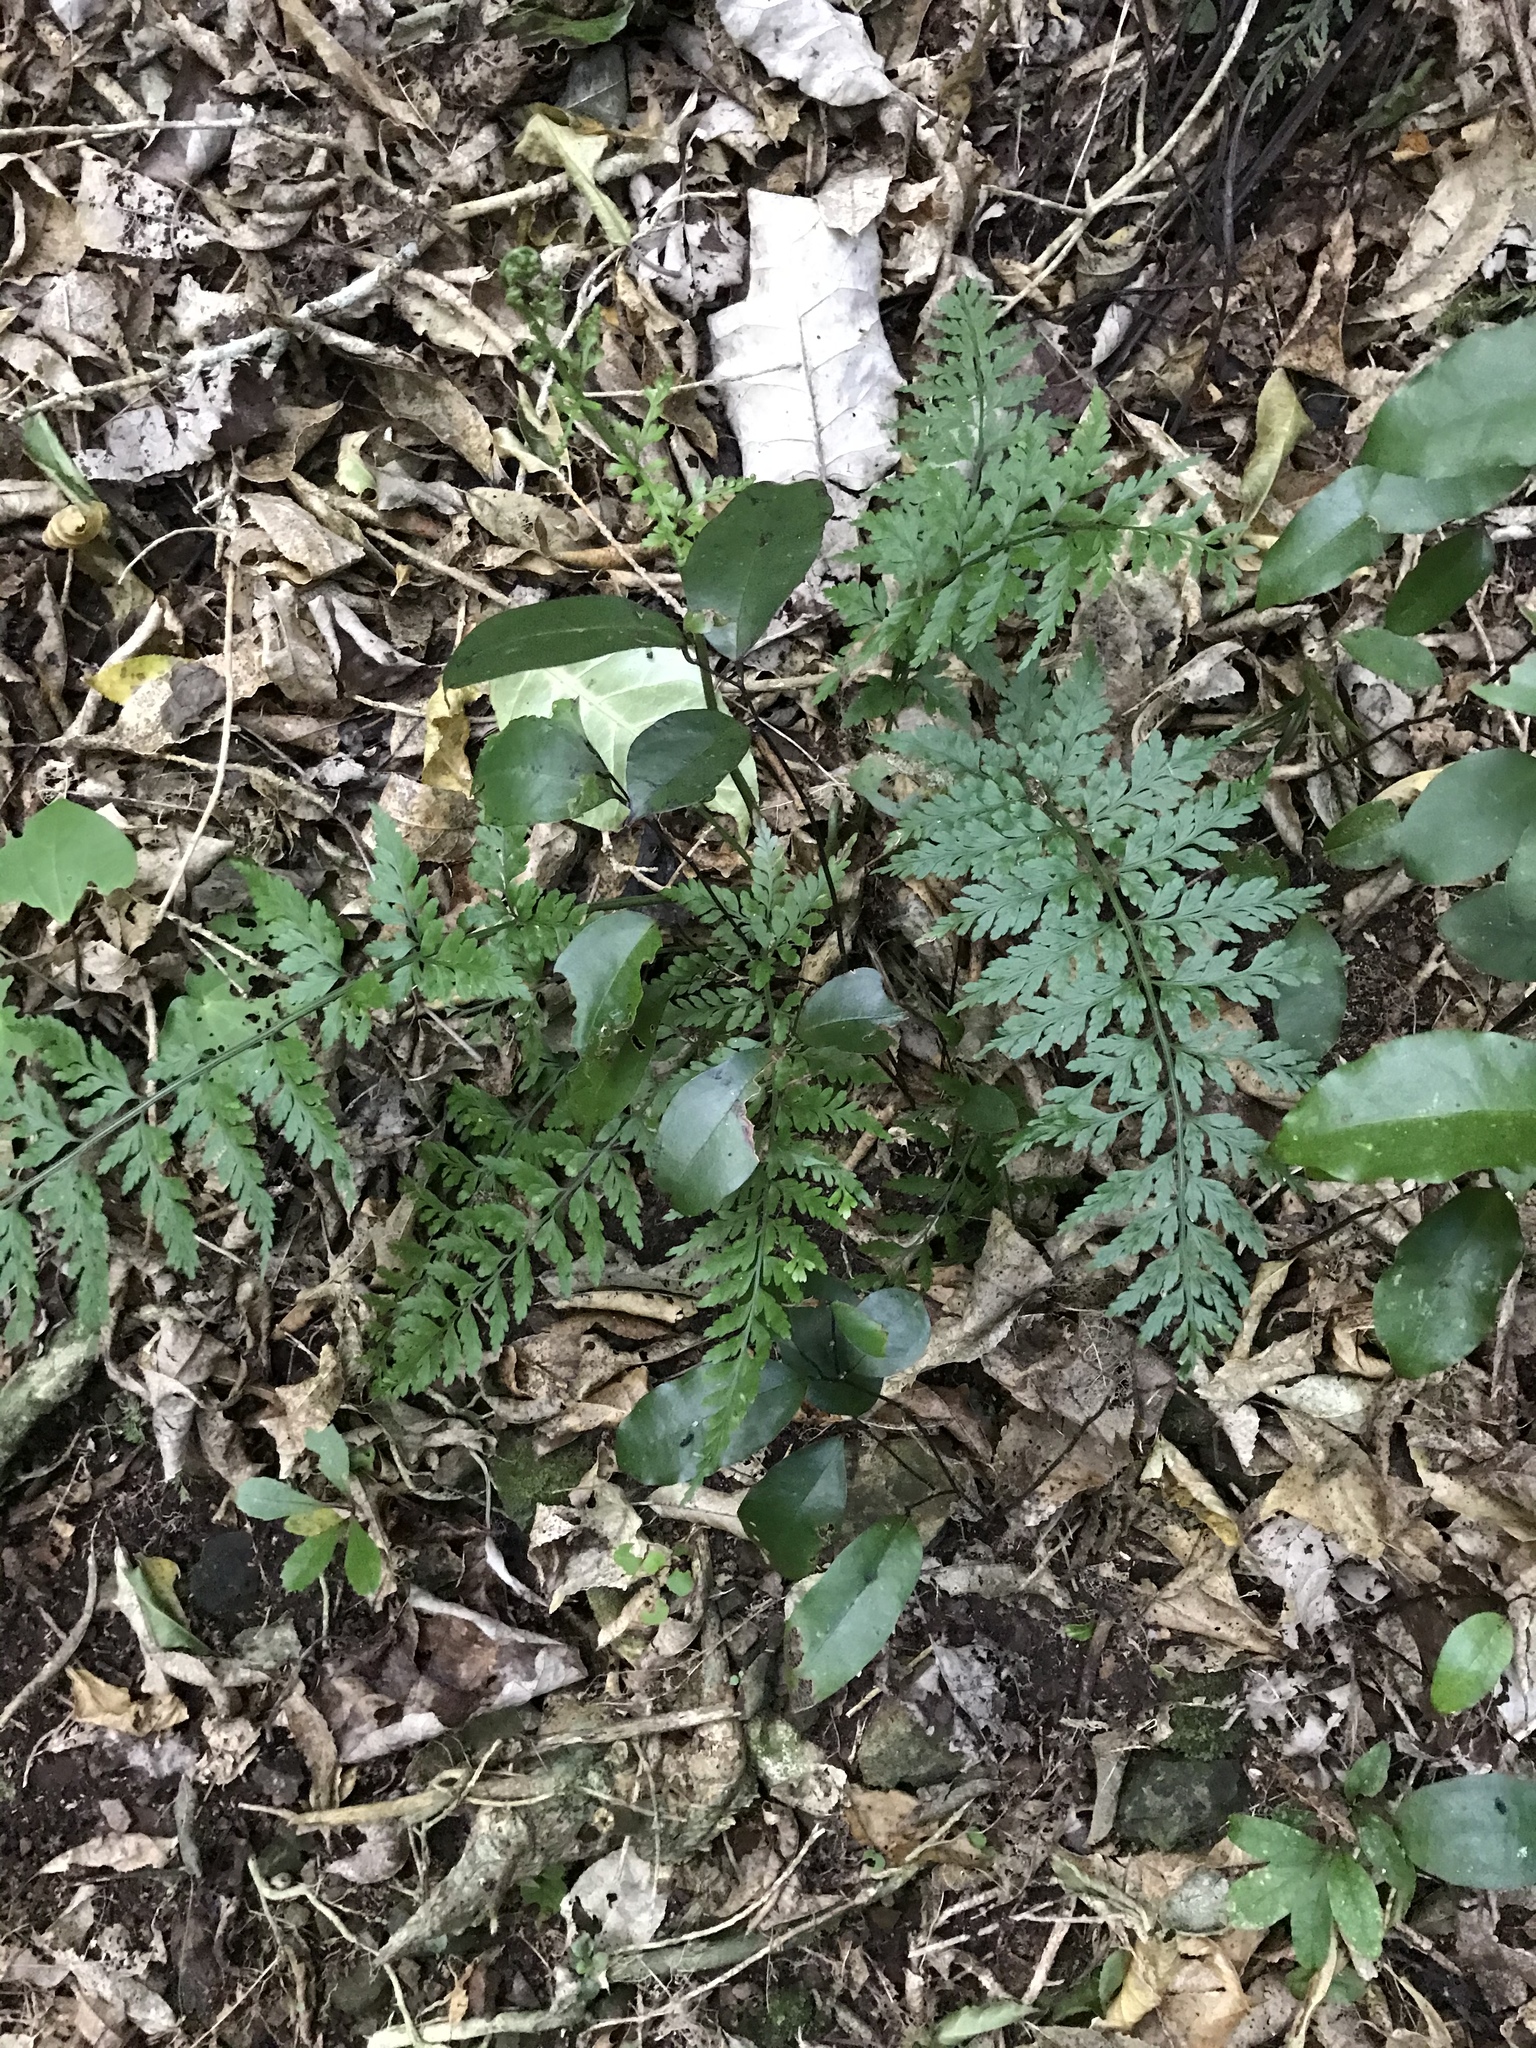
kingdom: Plantae
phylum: Tracheophyta
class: Liliopsida
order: Liliales
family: Ripogonaceae
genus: Ripogonum
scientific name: Ripogonum scandens
